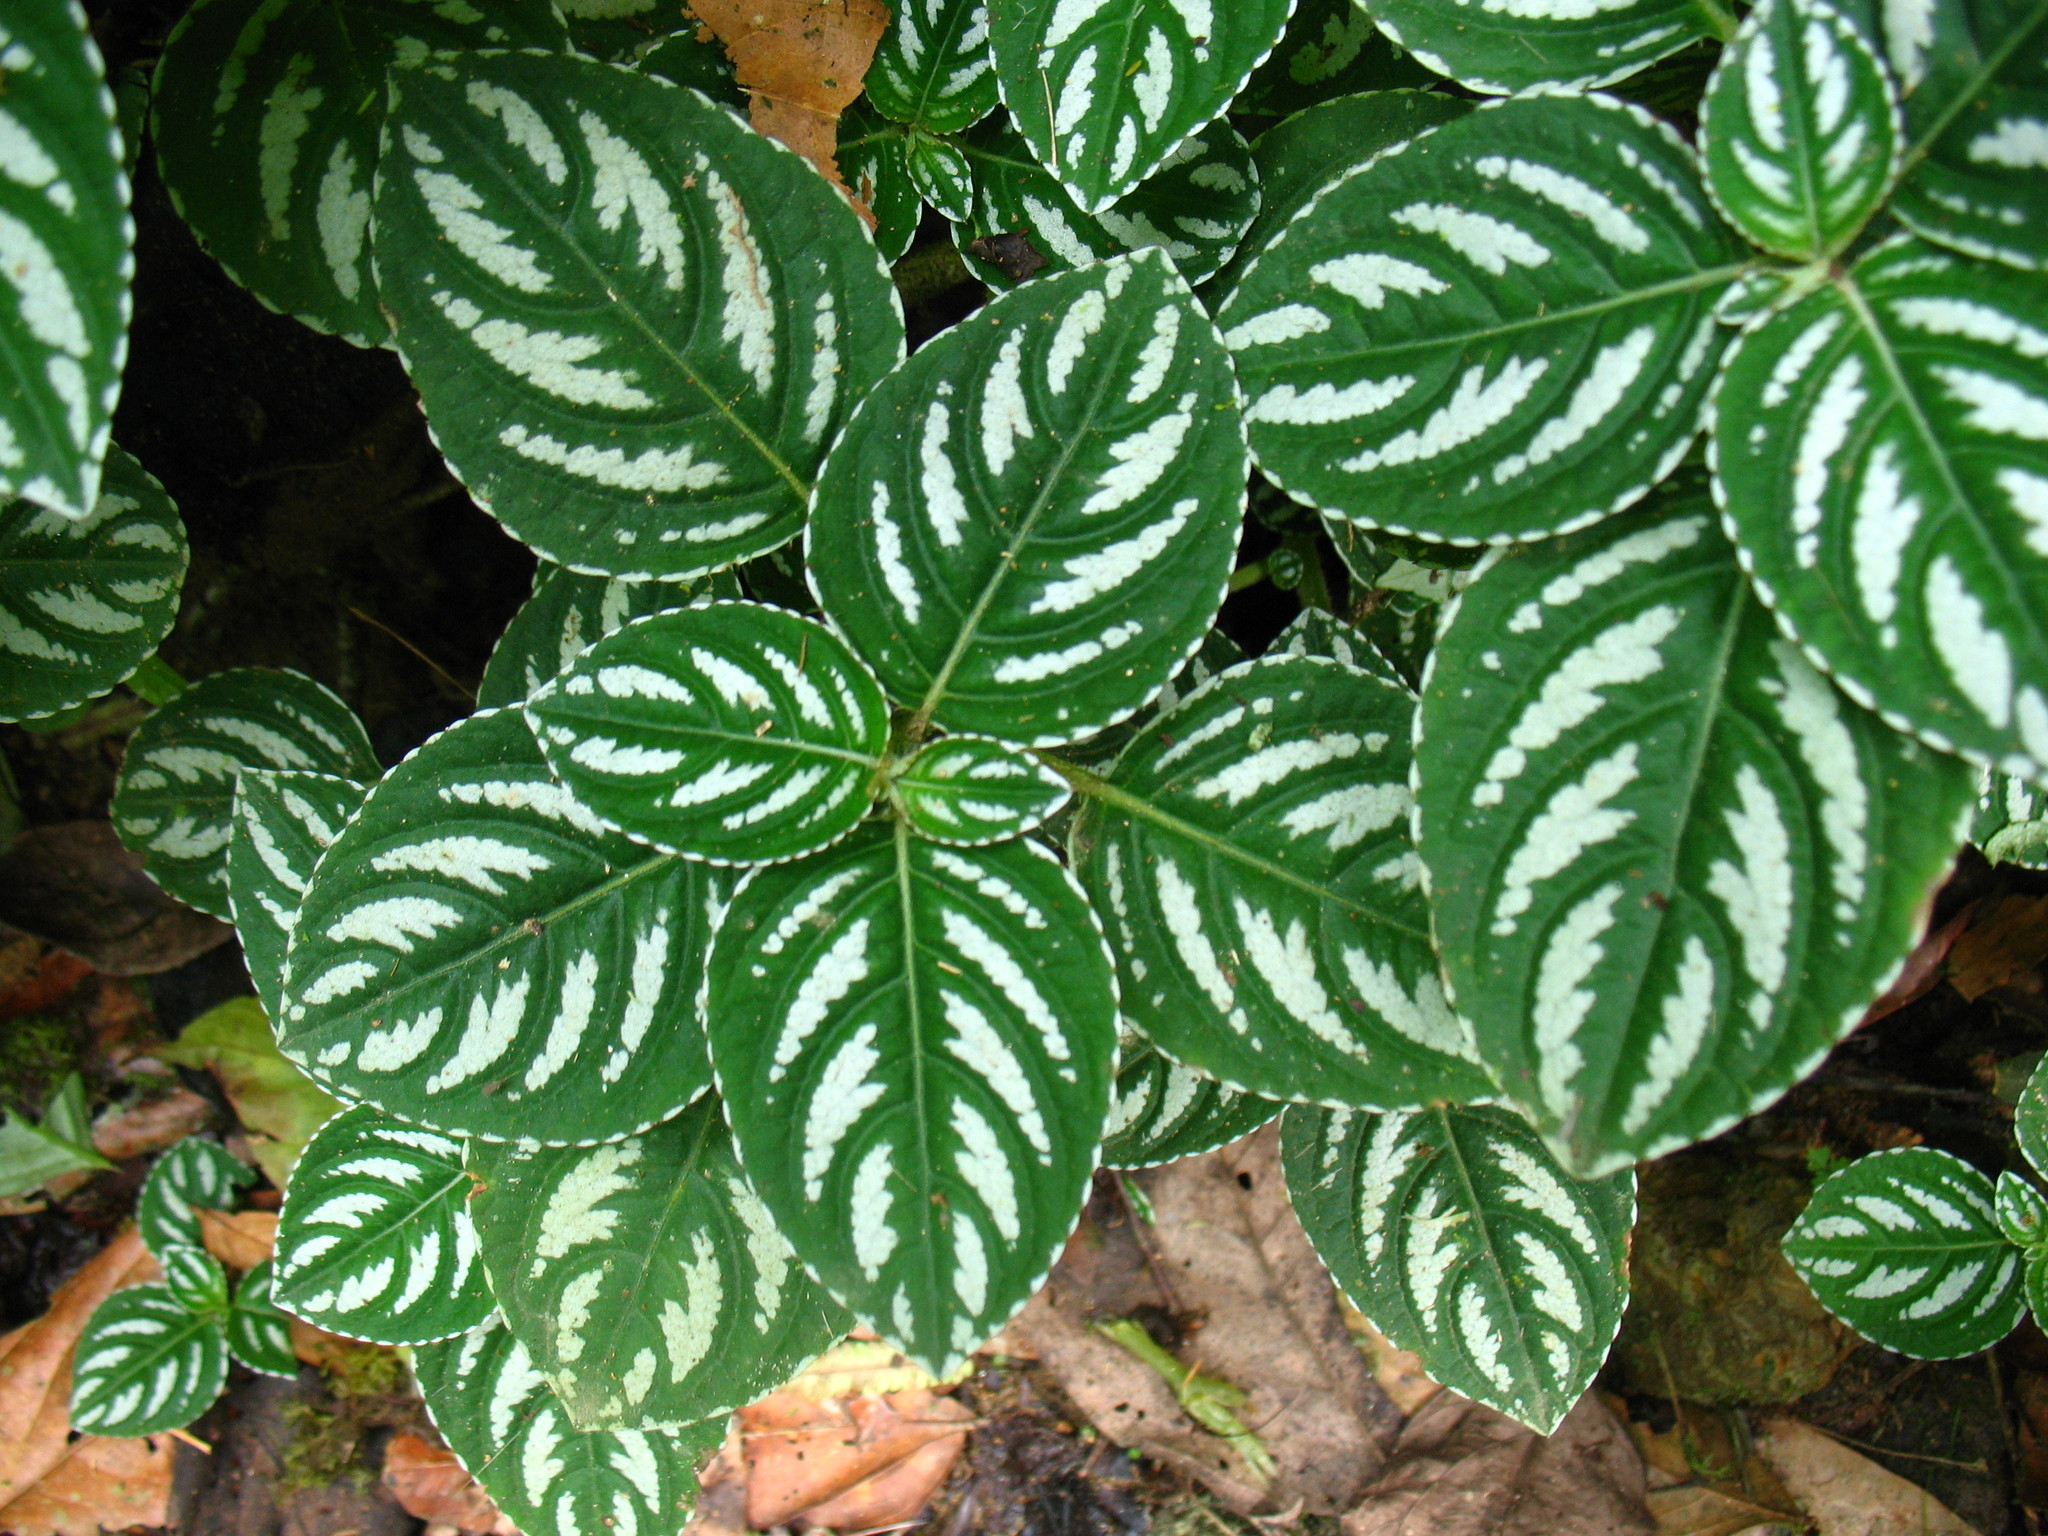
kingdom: Plantae
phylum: Tracheophyta
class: Magnoliopsida
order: Ericales
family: Balsaminaceae
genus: Impatiens
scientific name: Impatiens marianae
